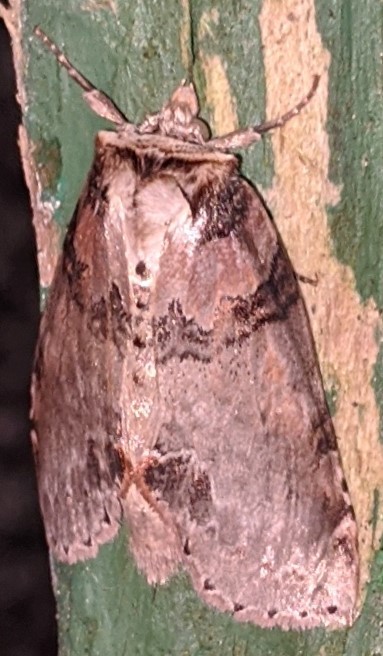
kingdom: Animalia
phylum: Arthropoda
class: Insecta
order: Lepidoptera
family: Drepanidae
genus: Pseudothyatira
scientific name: Pseudothyatira cymatophoroides
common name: Tufted thyatirid moth
